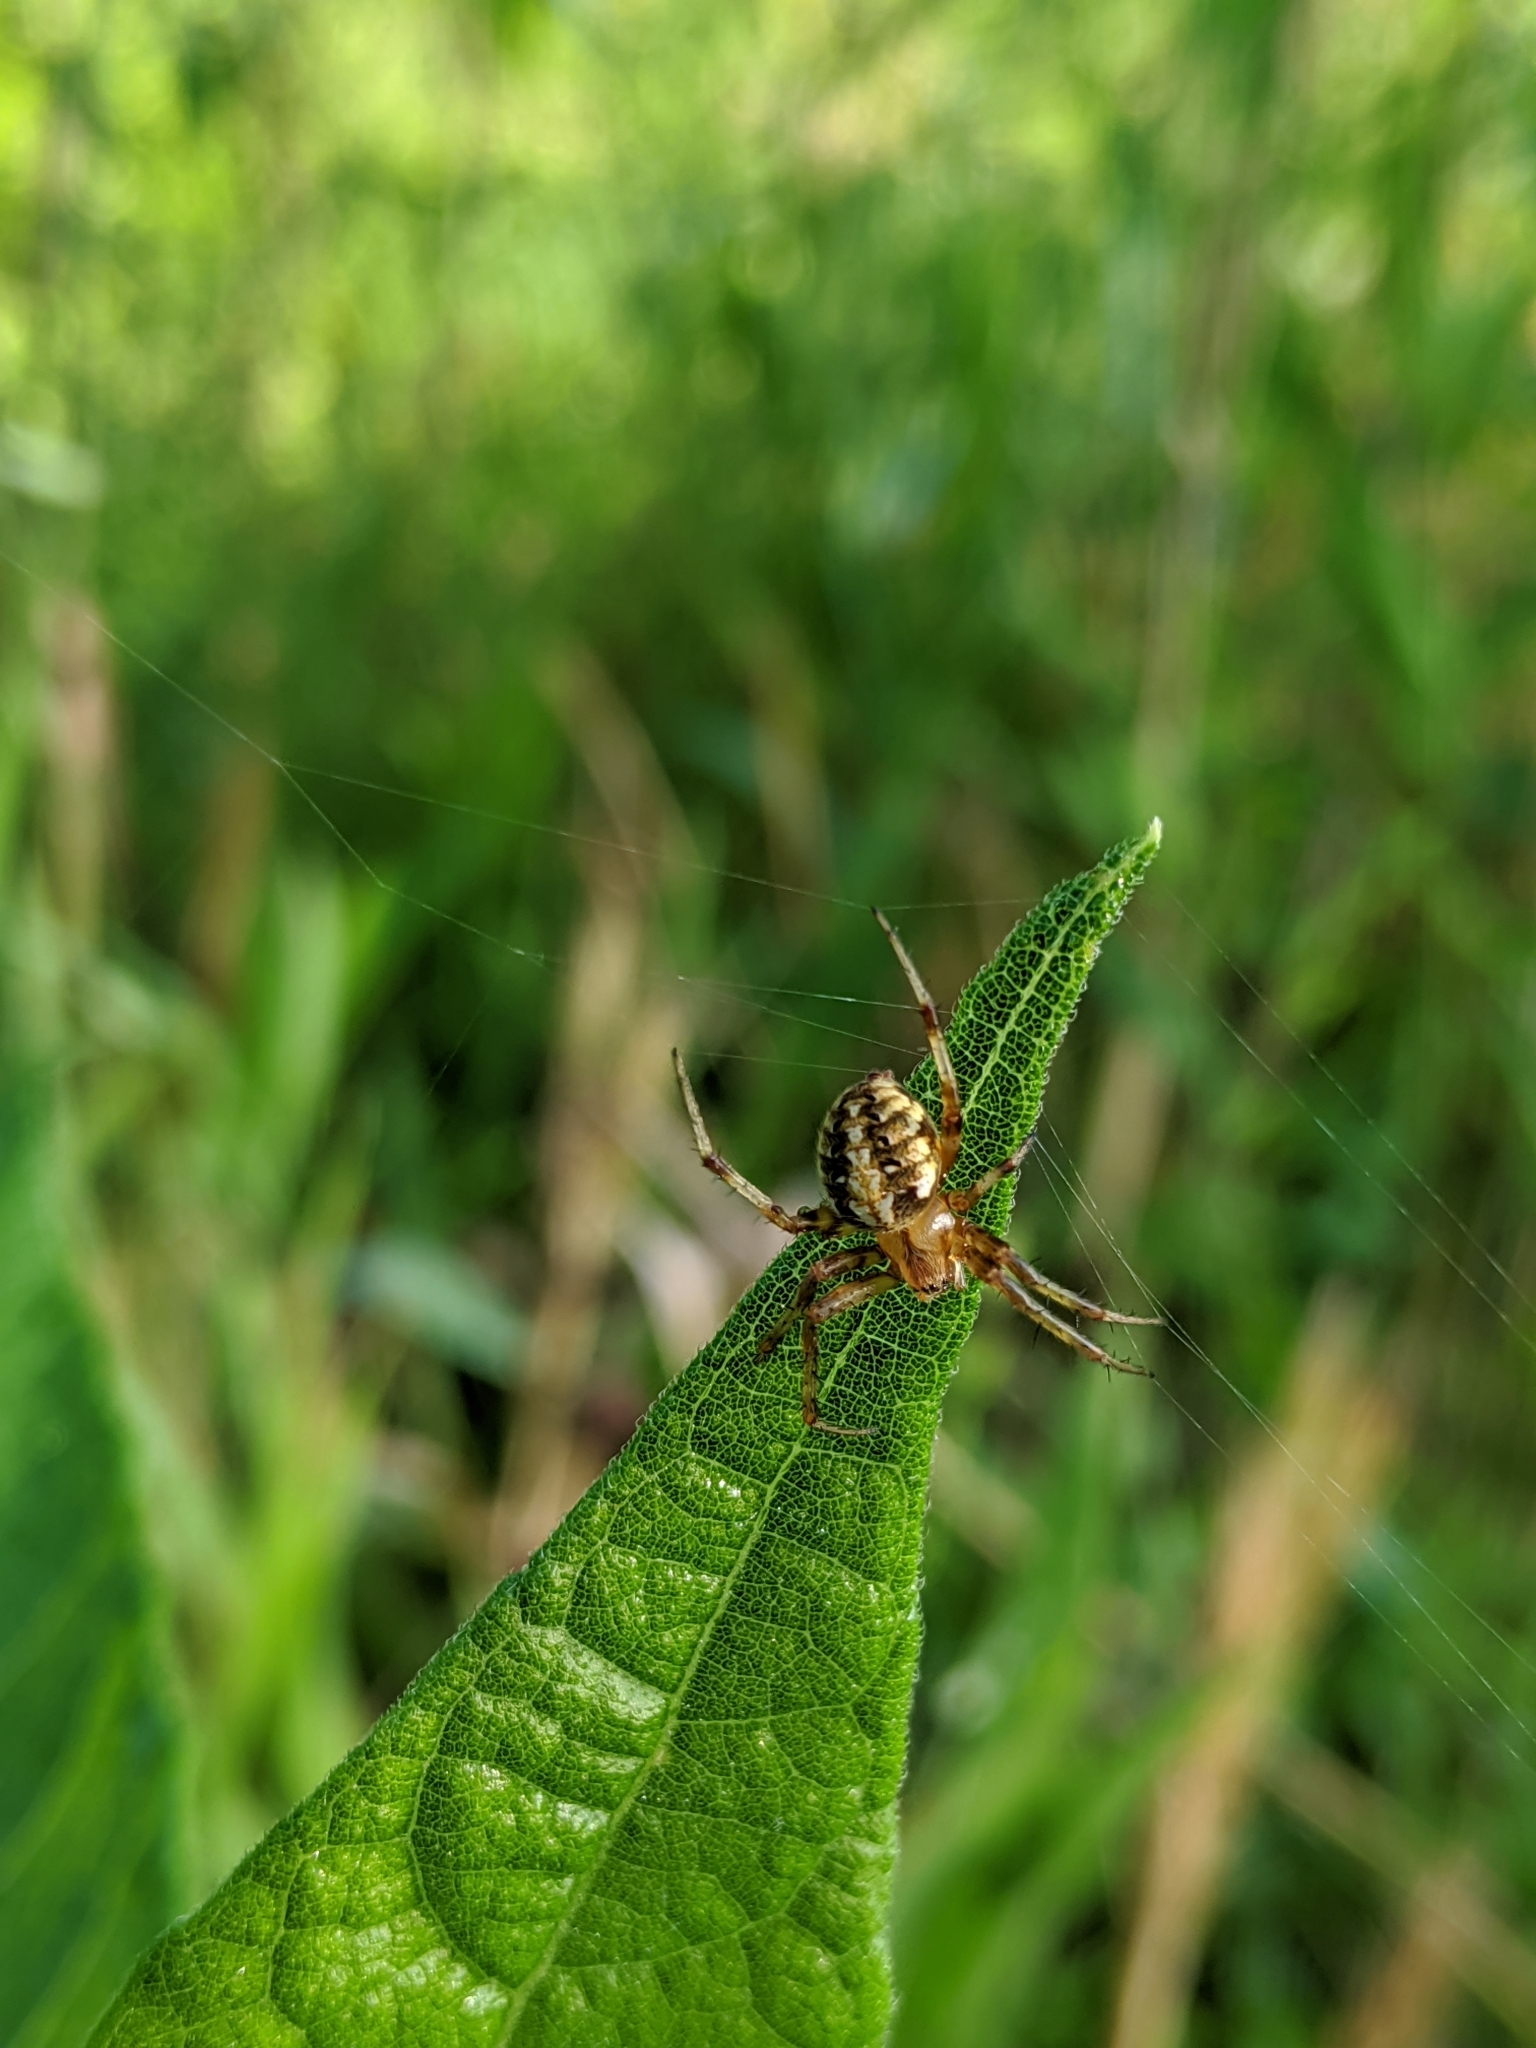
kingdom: Animalia
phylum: Arthropoda
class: Arachnida
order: Araneae
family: Araneidae
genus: Neoscona
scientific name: Neoscona arabesca
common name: Orb weavers
